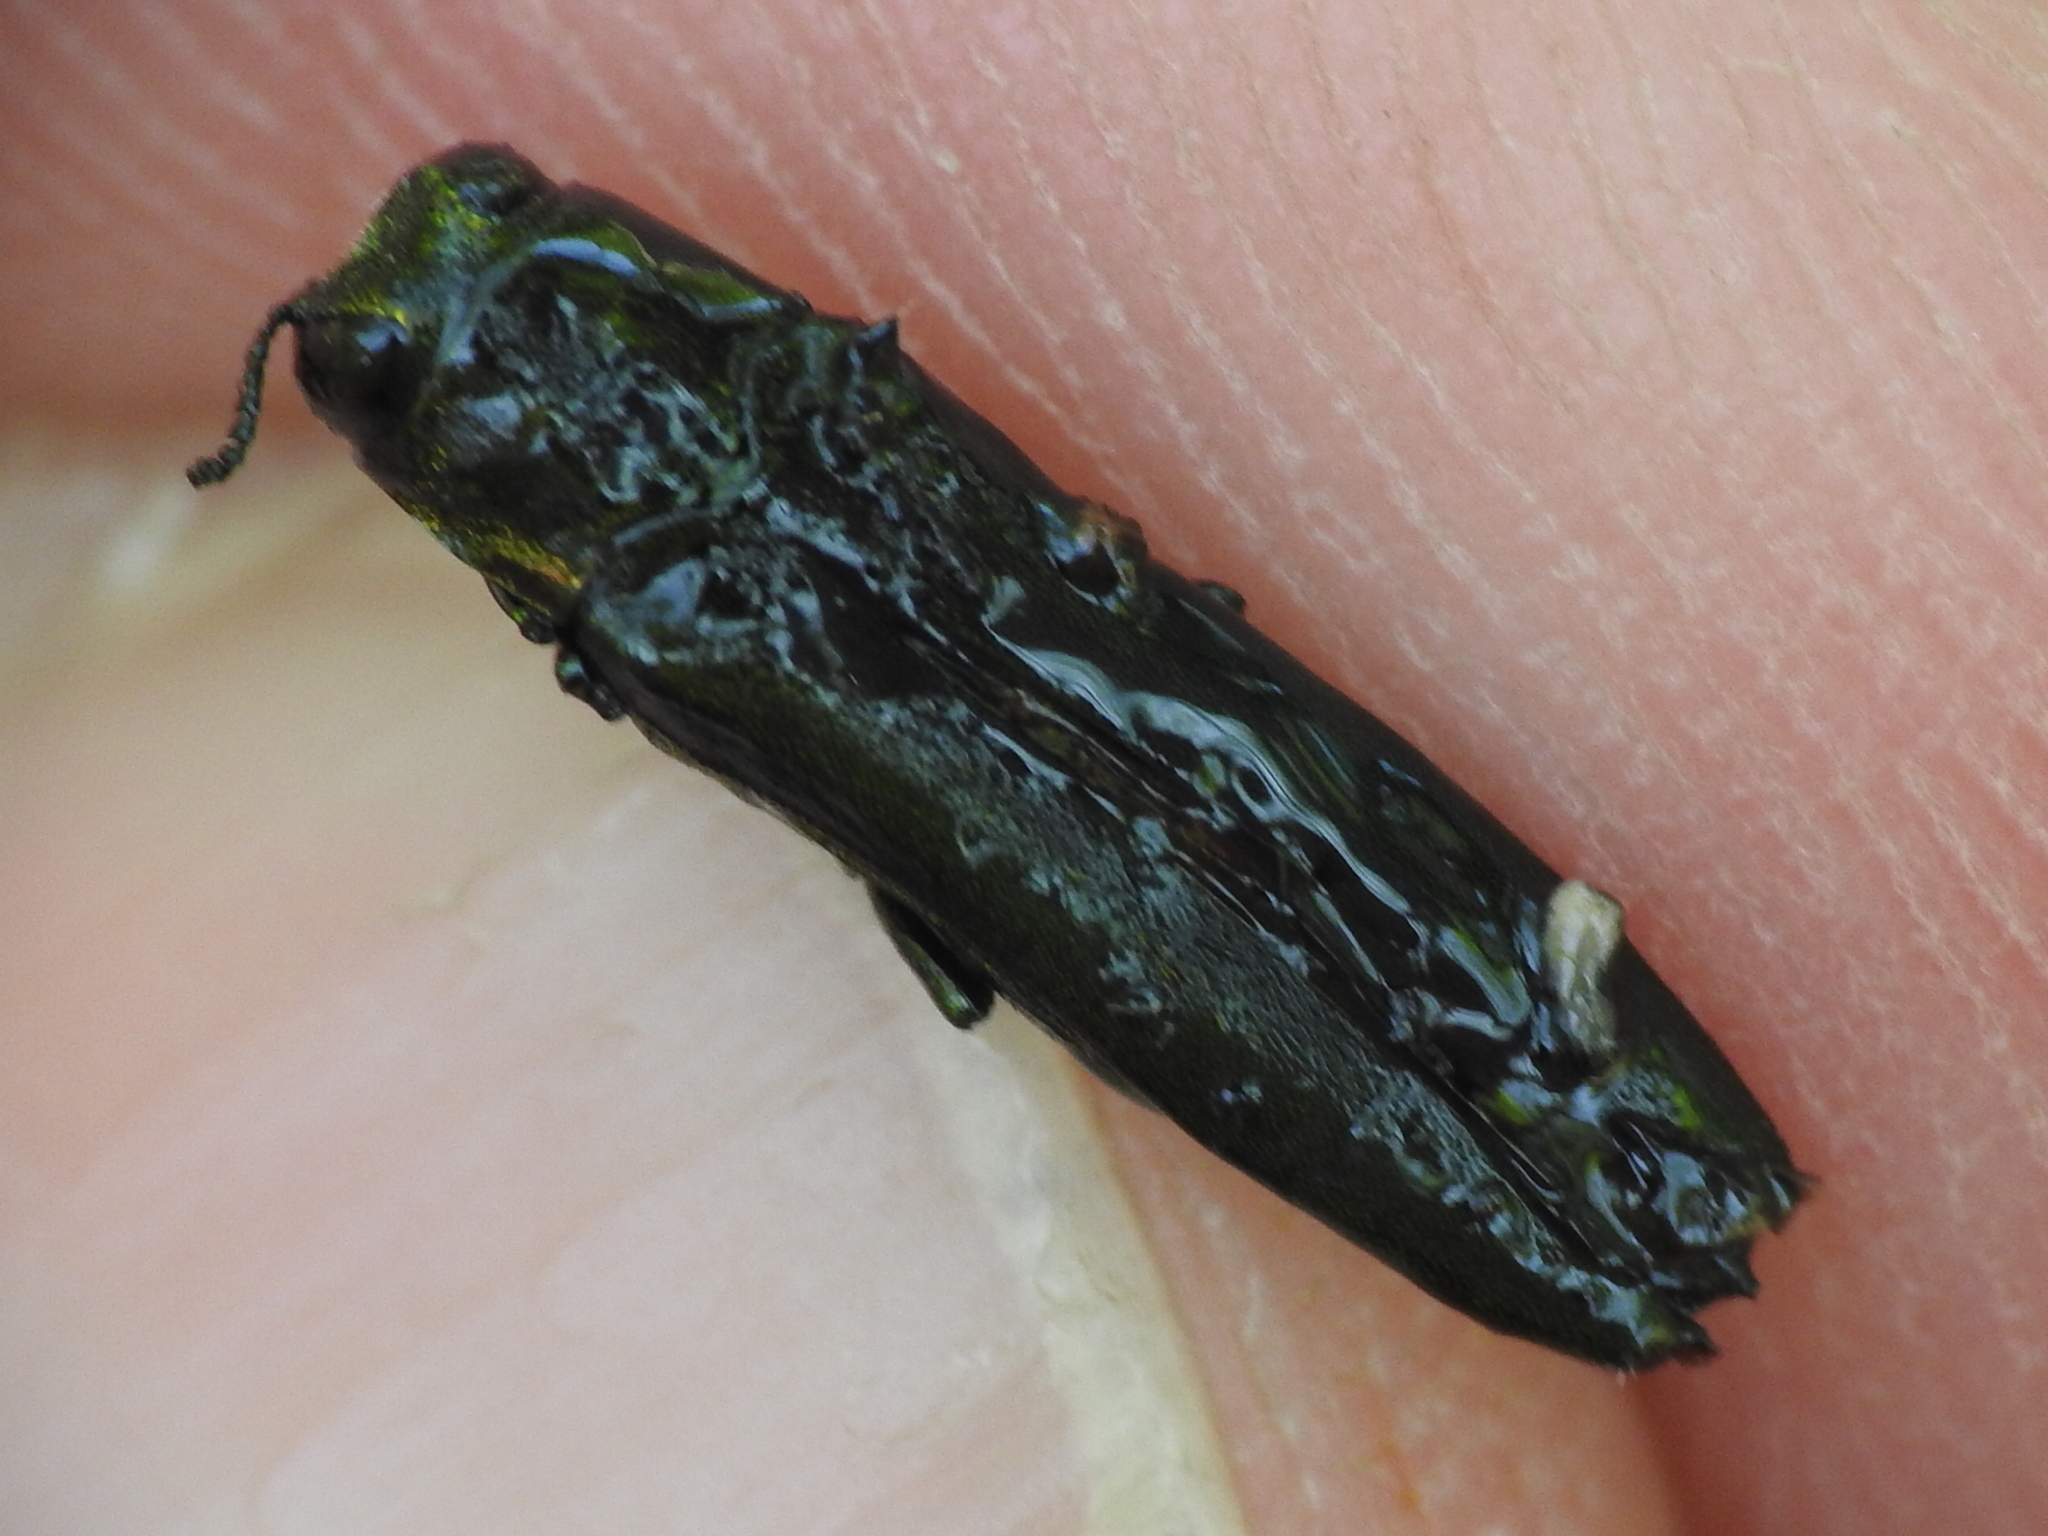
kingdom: Animalia
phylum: Arthropoda
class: Insecta
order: Coleoptera
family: Buprestidae
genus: Agrilus
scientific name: Agrilus planipennis
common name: Emerald ash borer
